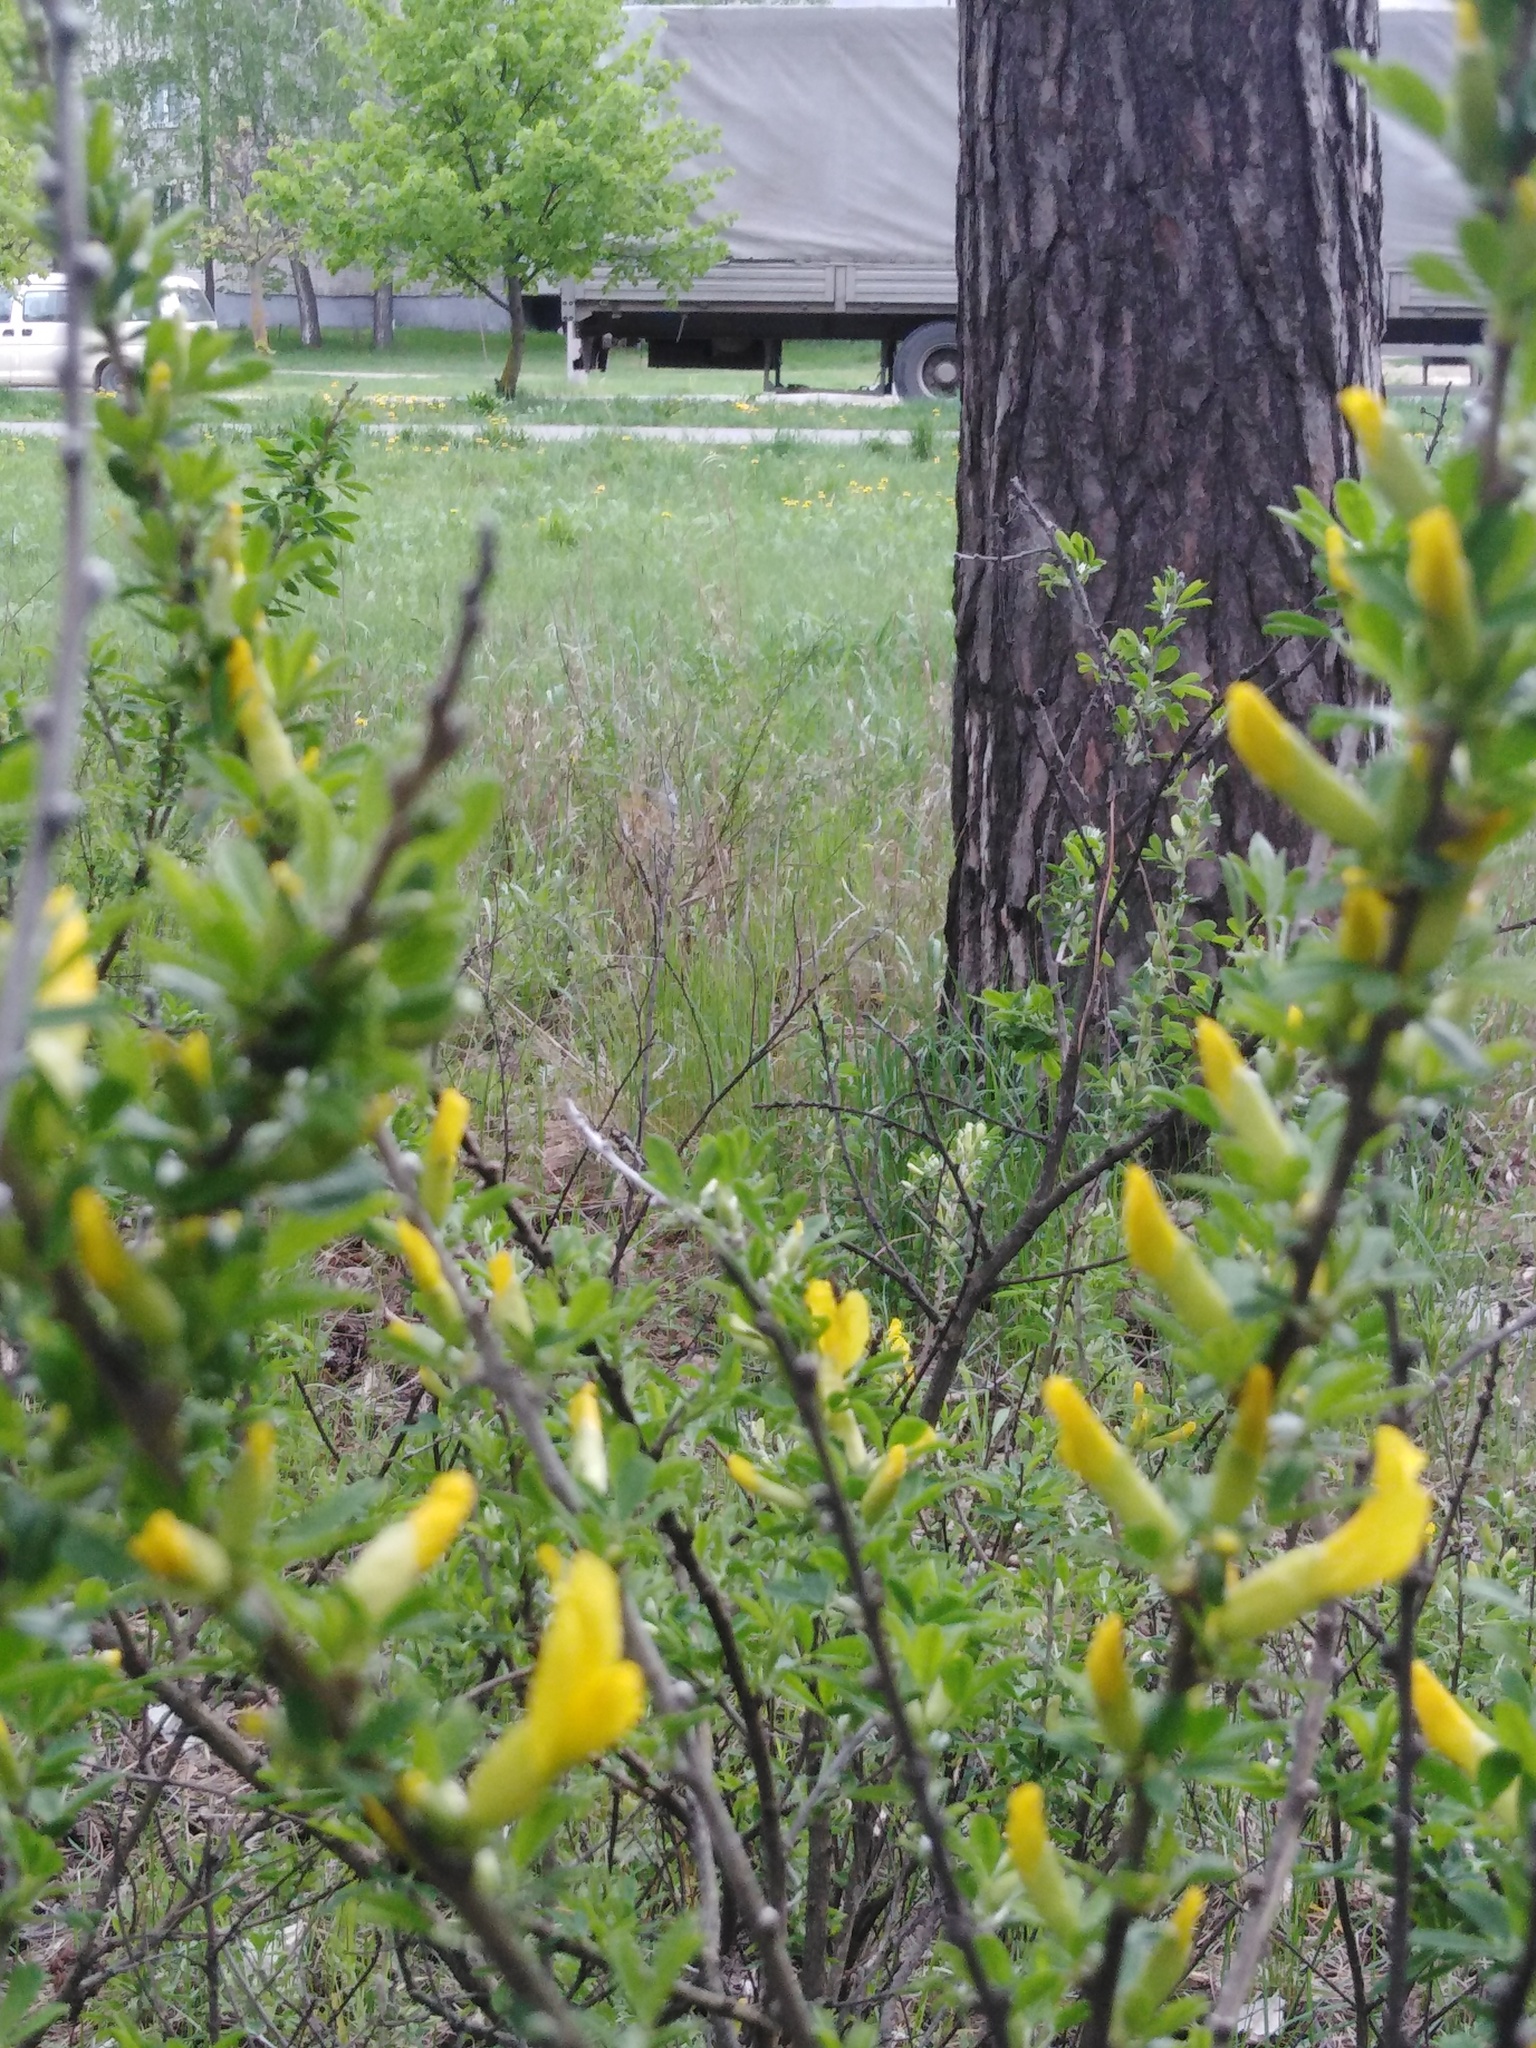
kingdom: Plantae
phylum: Tracheophyta
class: Magnoliopsida
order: Fabales
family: Fabaceae
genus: Chamaecytisus
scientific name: Chamaecytisus ruthenicus
